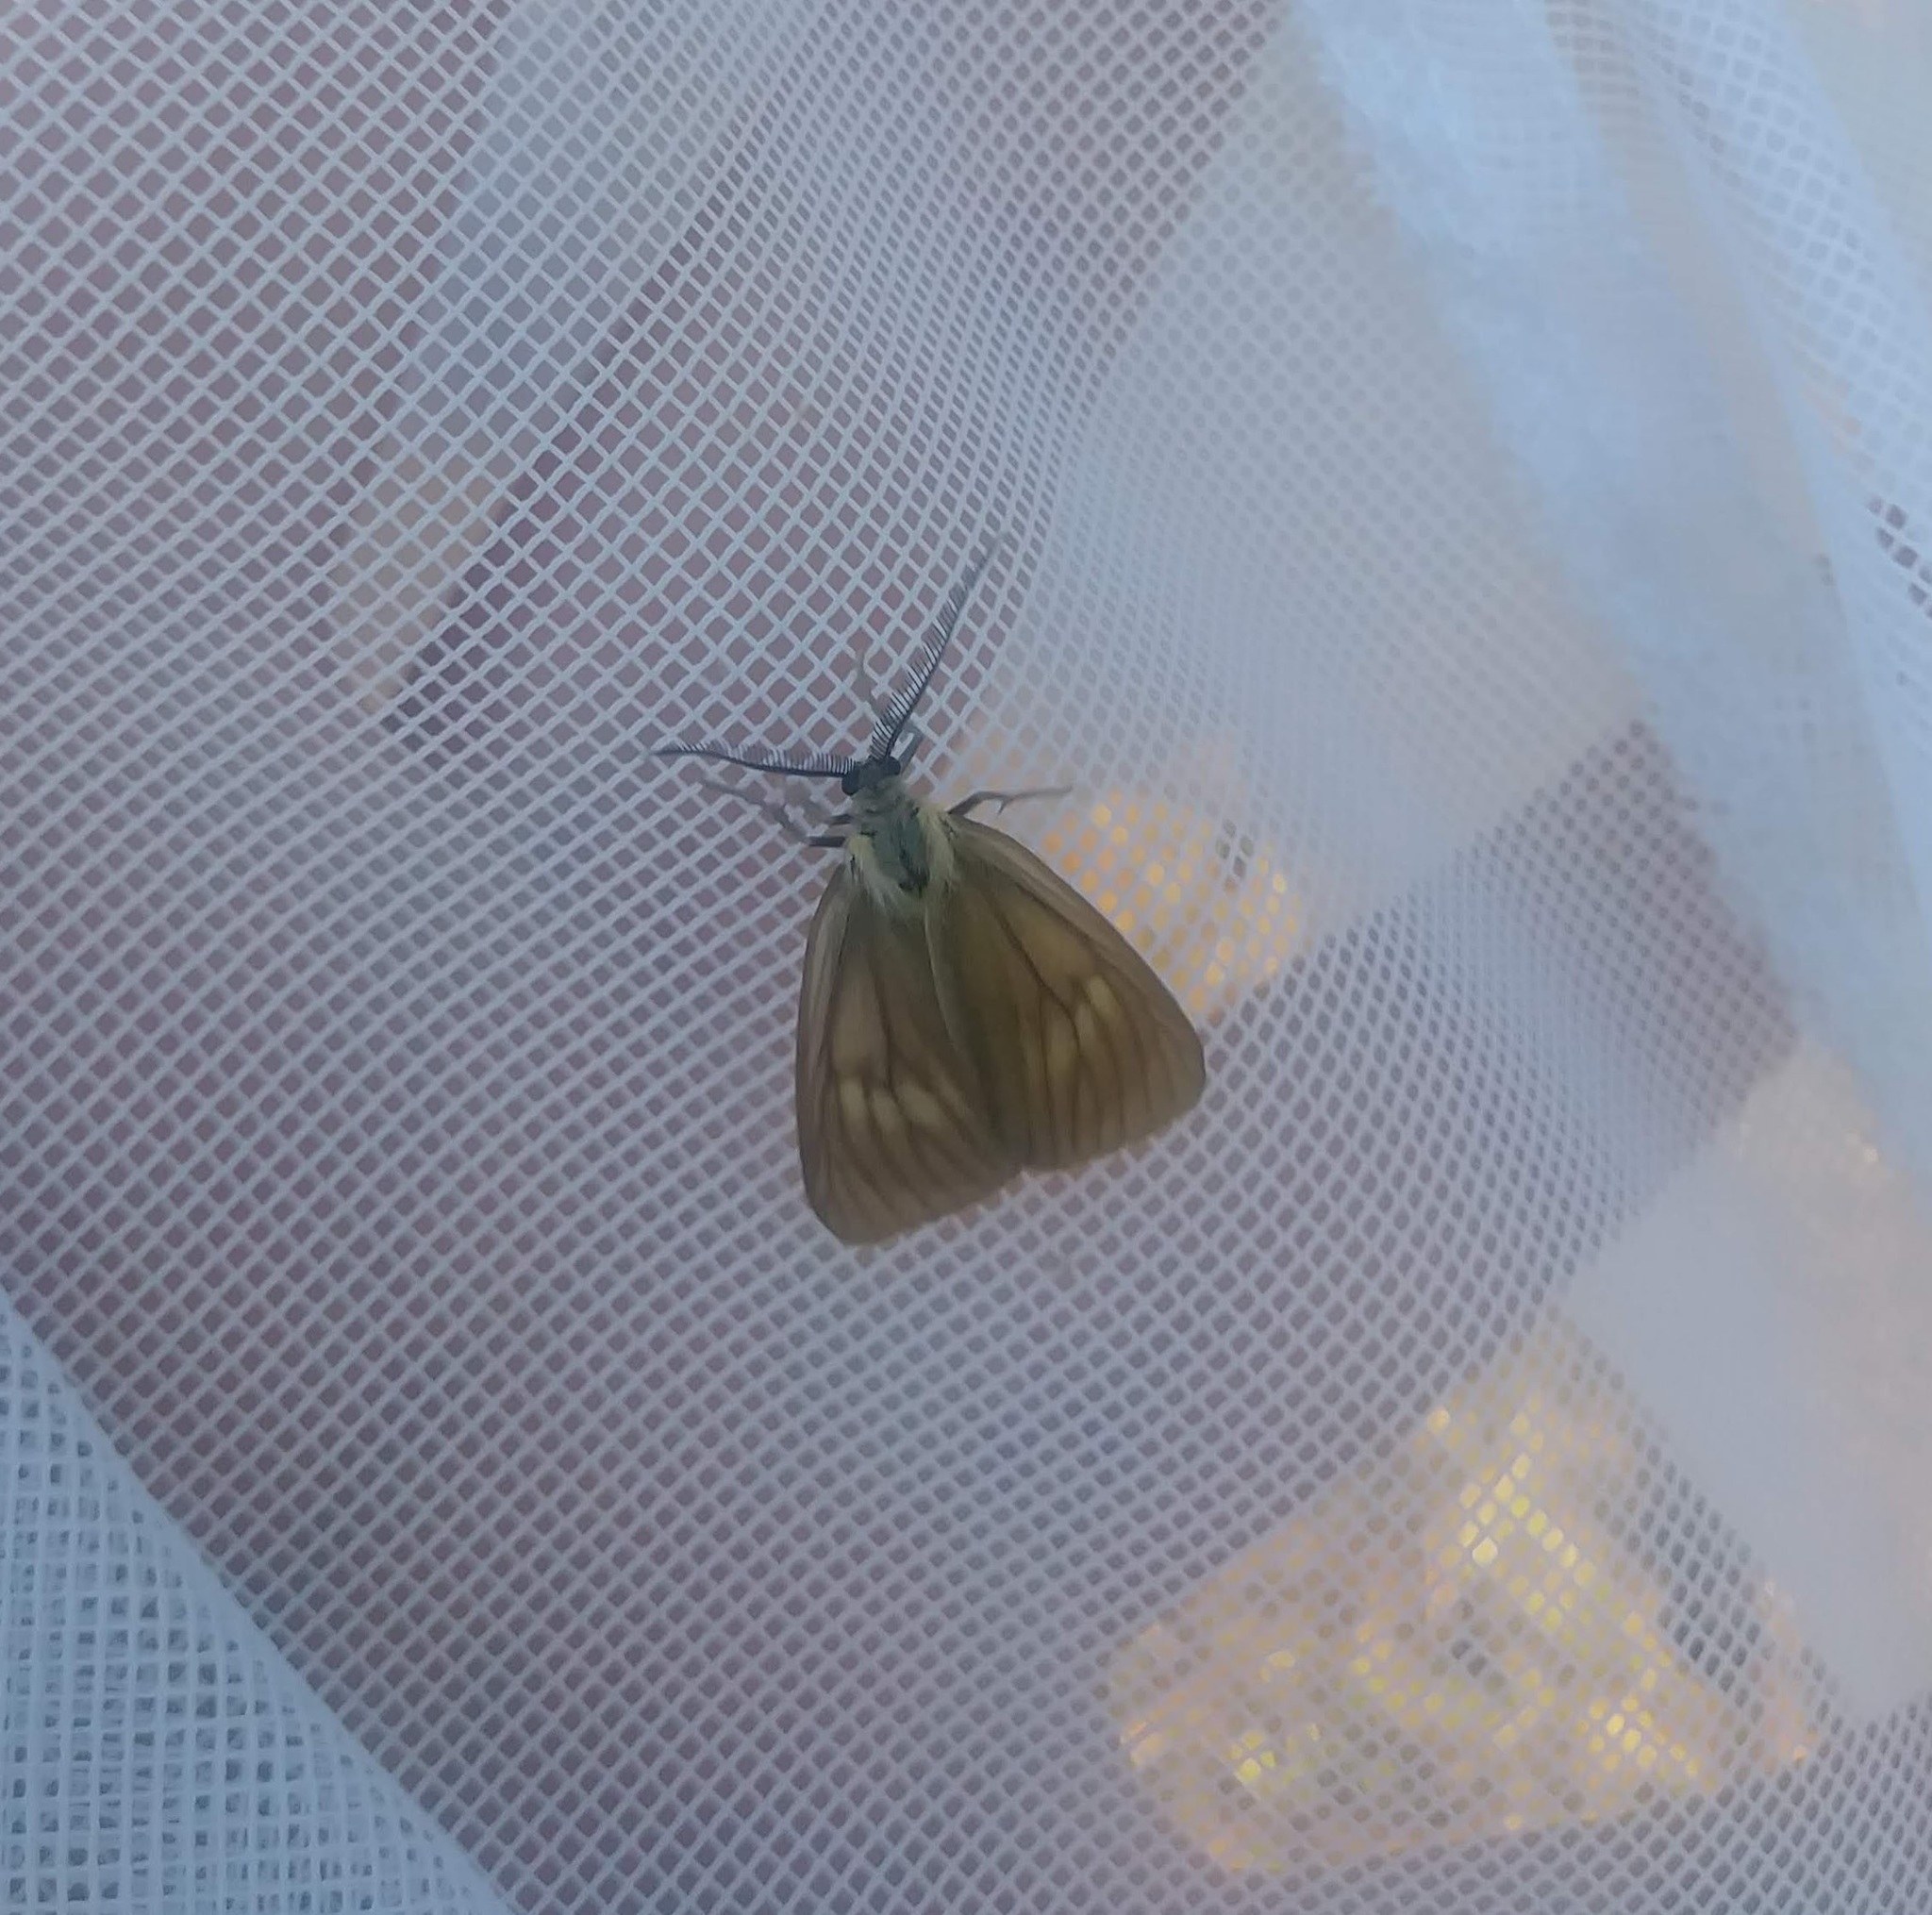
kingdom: Animalia
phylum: Arthropoda
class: Insecta
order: Lepidoptera
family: Notodontidae
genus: Phryganidia
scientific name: Phryganidia californica
